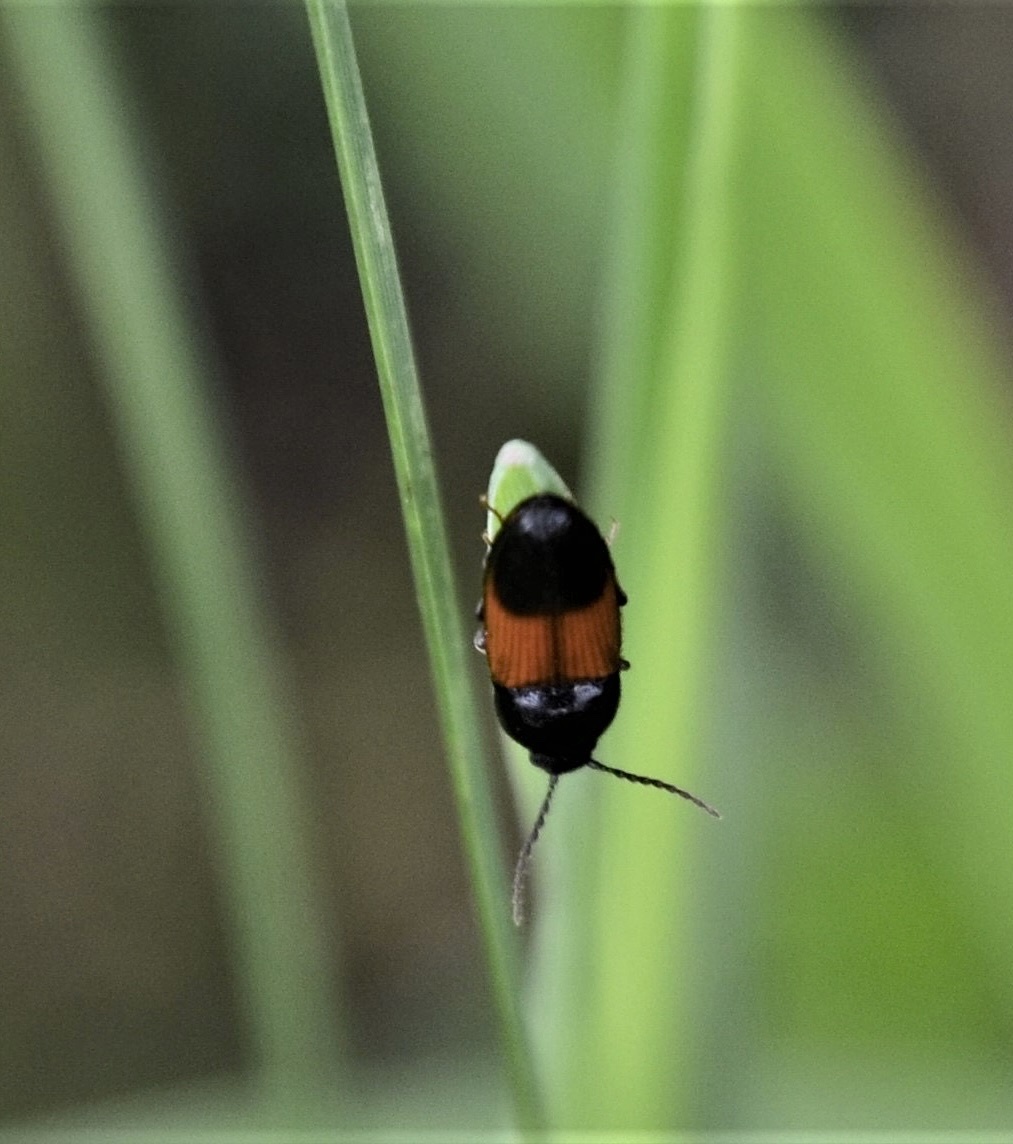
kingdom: Animalia
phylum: Arthropoda
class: Insecta
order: Coleoptera
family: Elateridae
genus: Ampedus
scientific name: Ampedus balteatus
